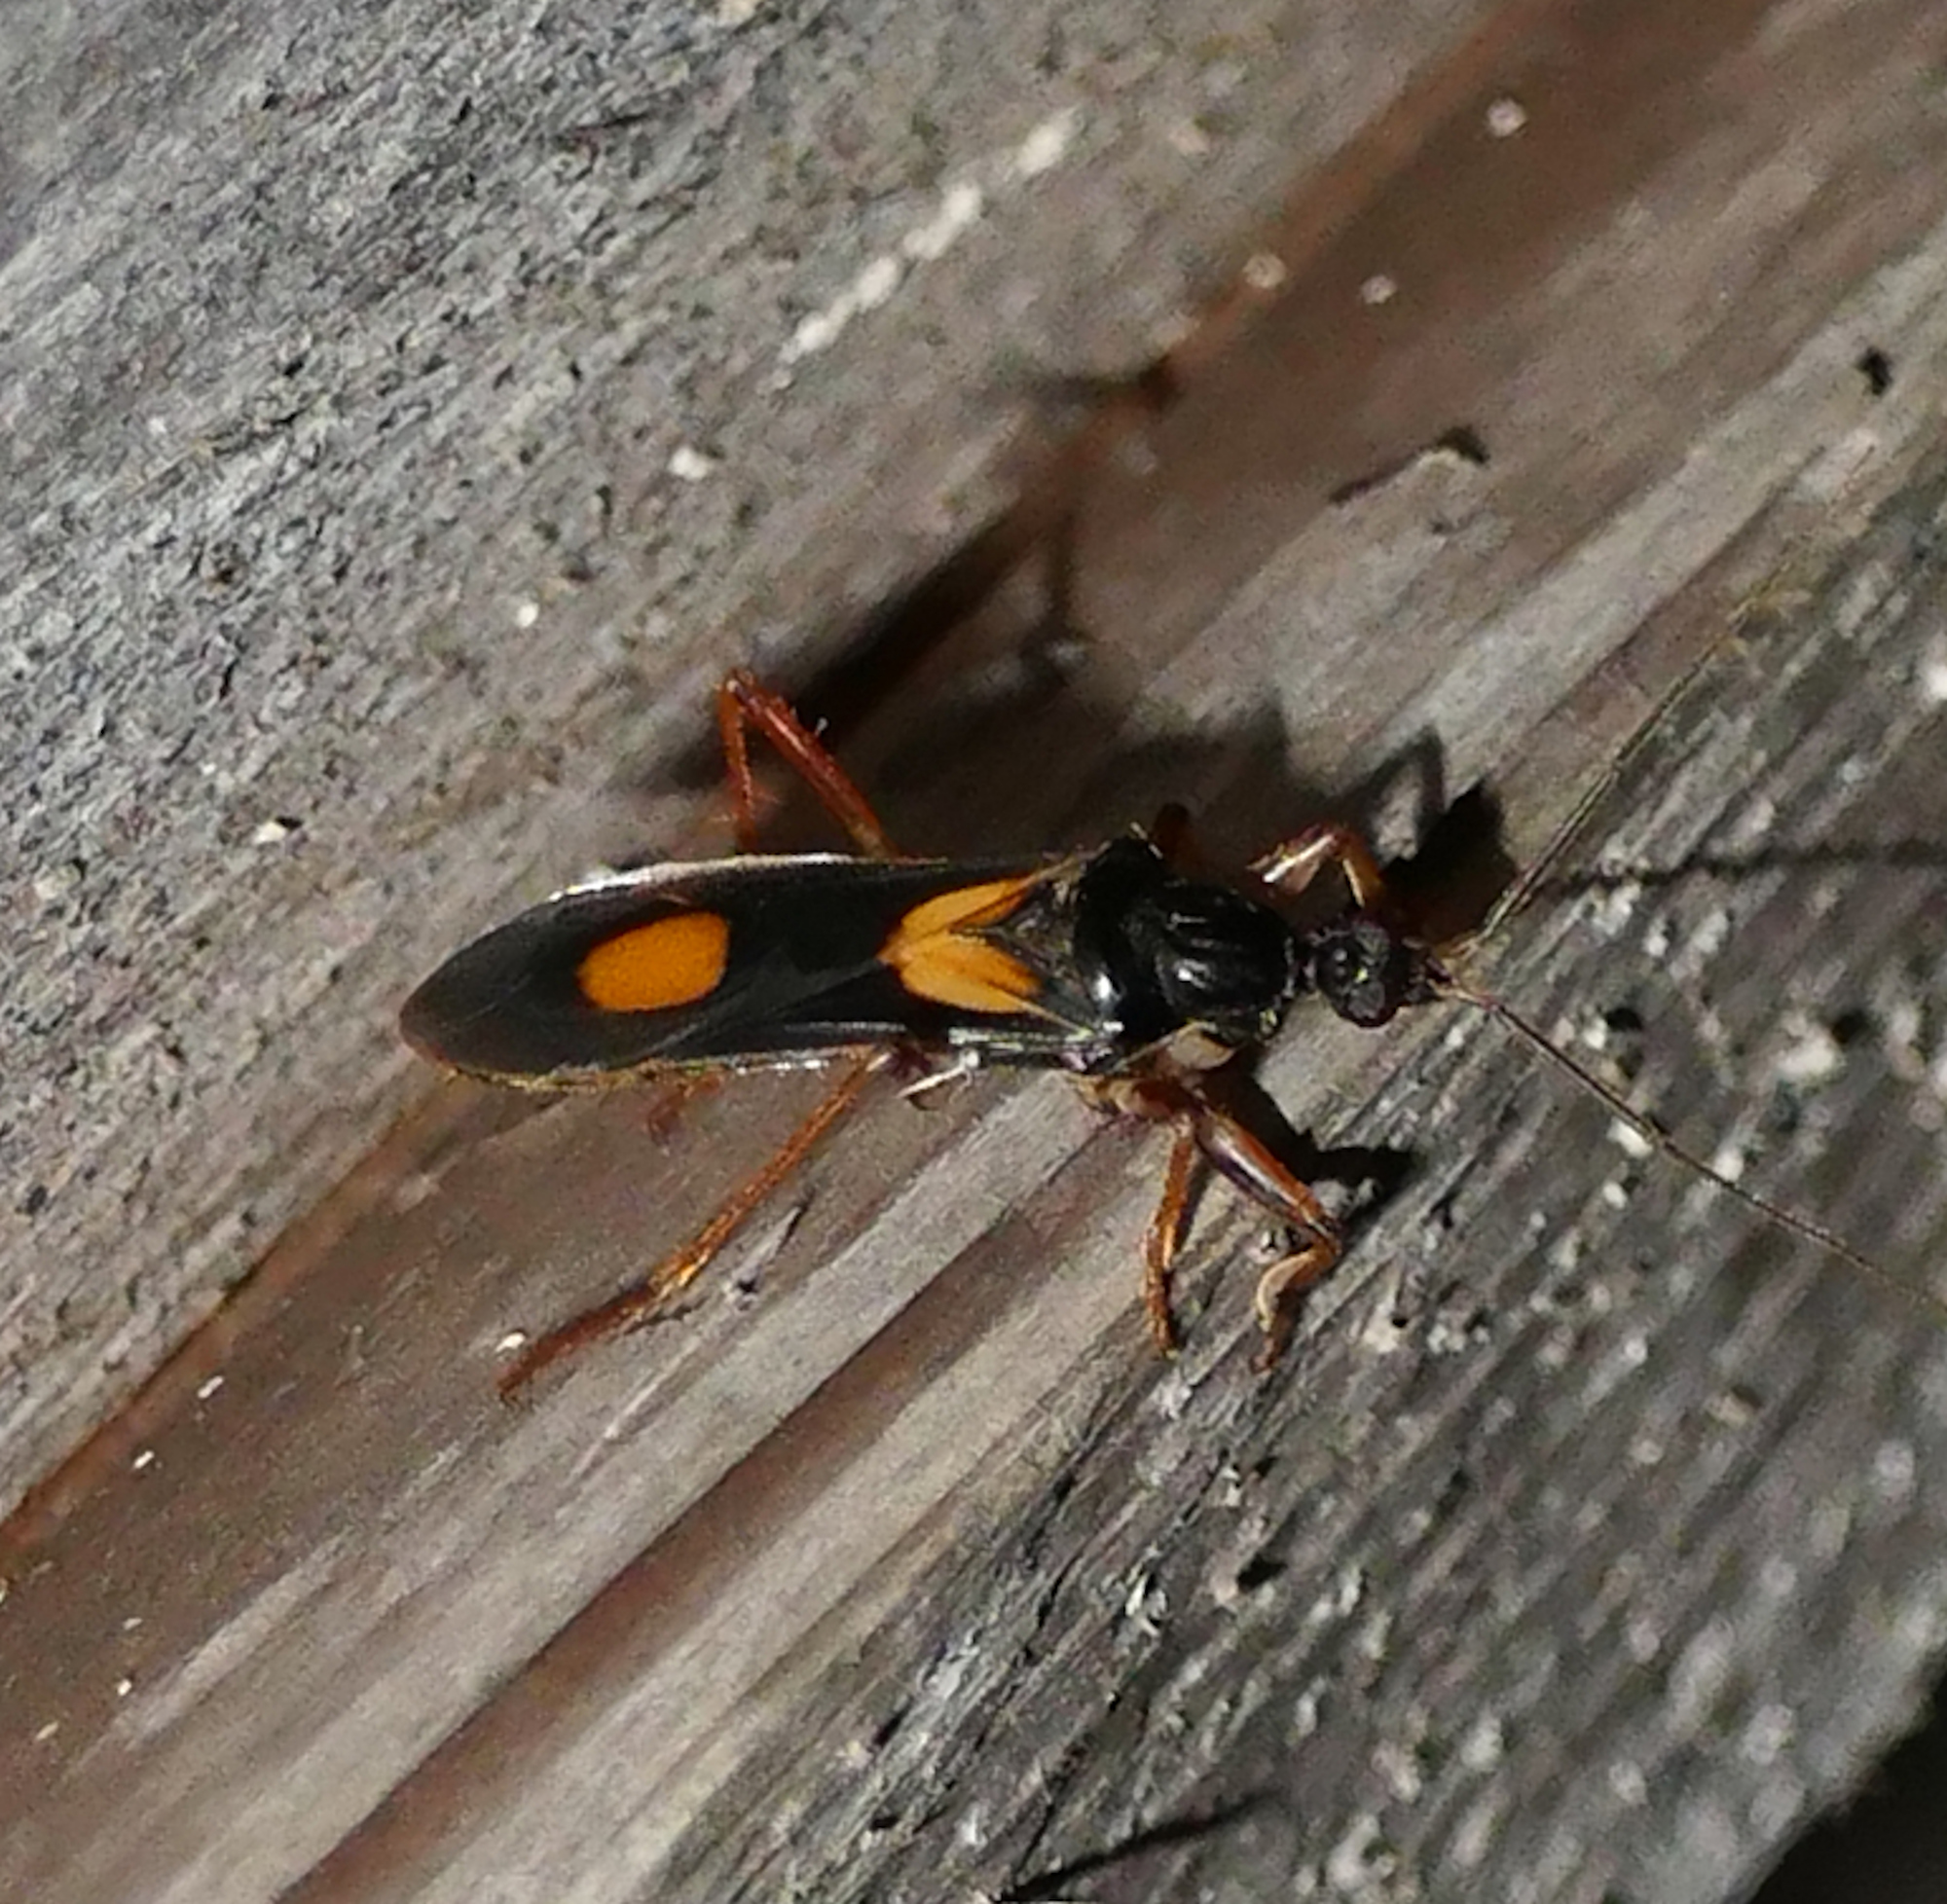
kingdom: Animalia
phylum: Arthropoda
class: Insecta
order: Hemiptera
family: Reduviidae
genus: Rasahus
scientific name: Rasahus hamatus
